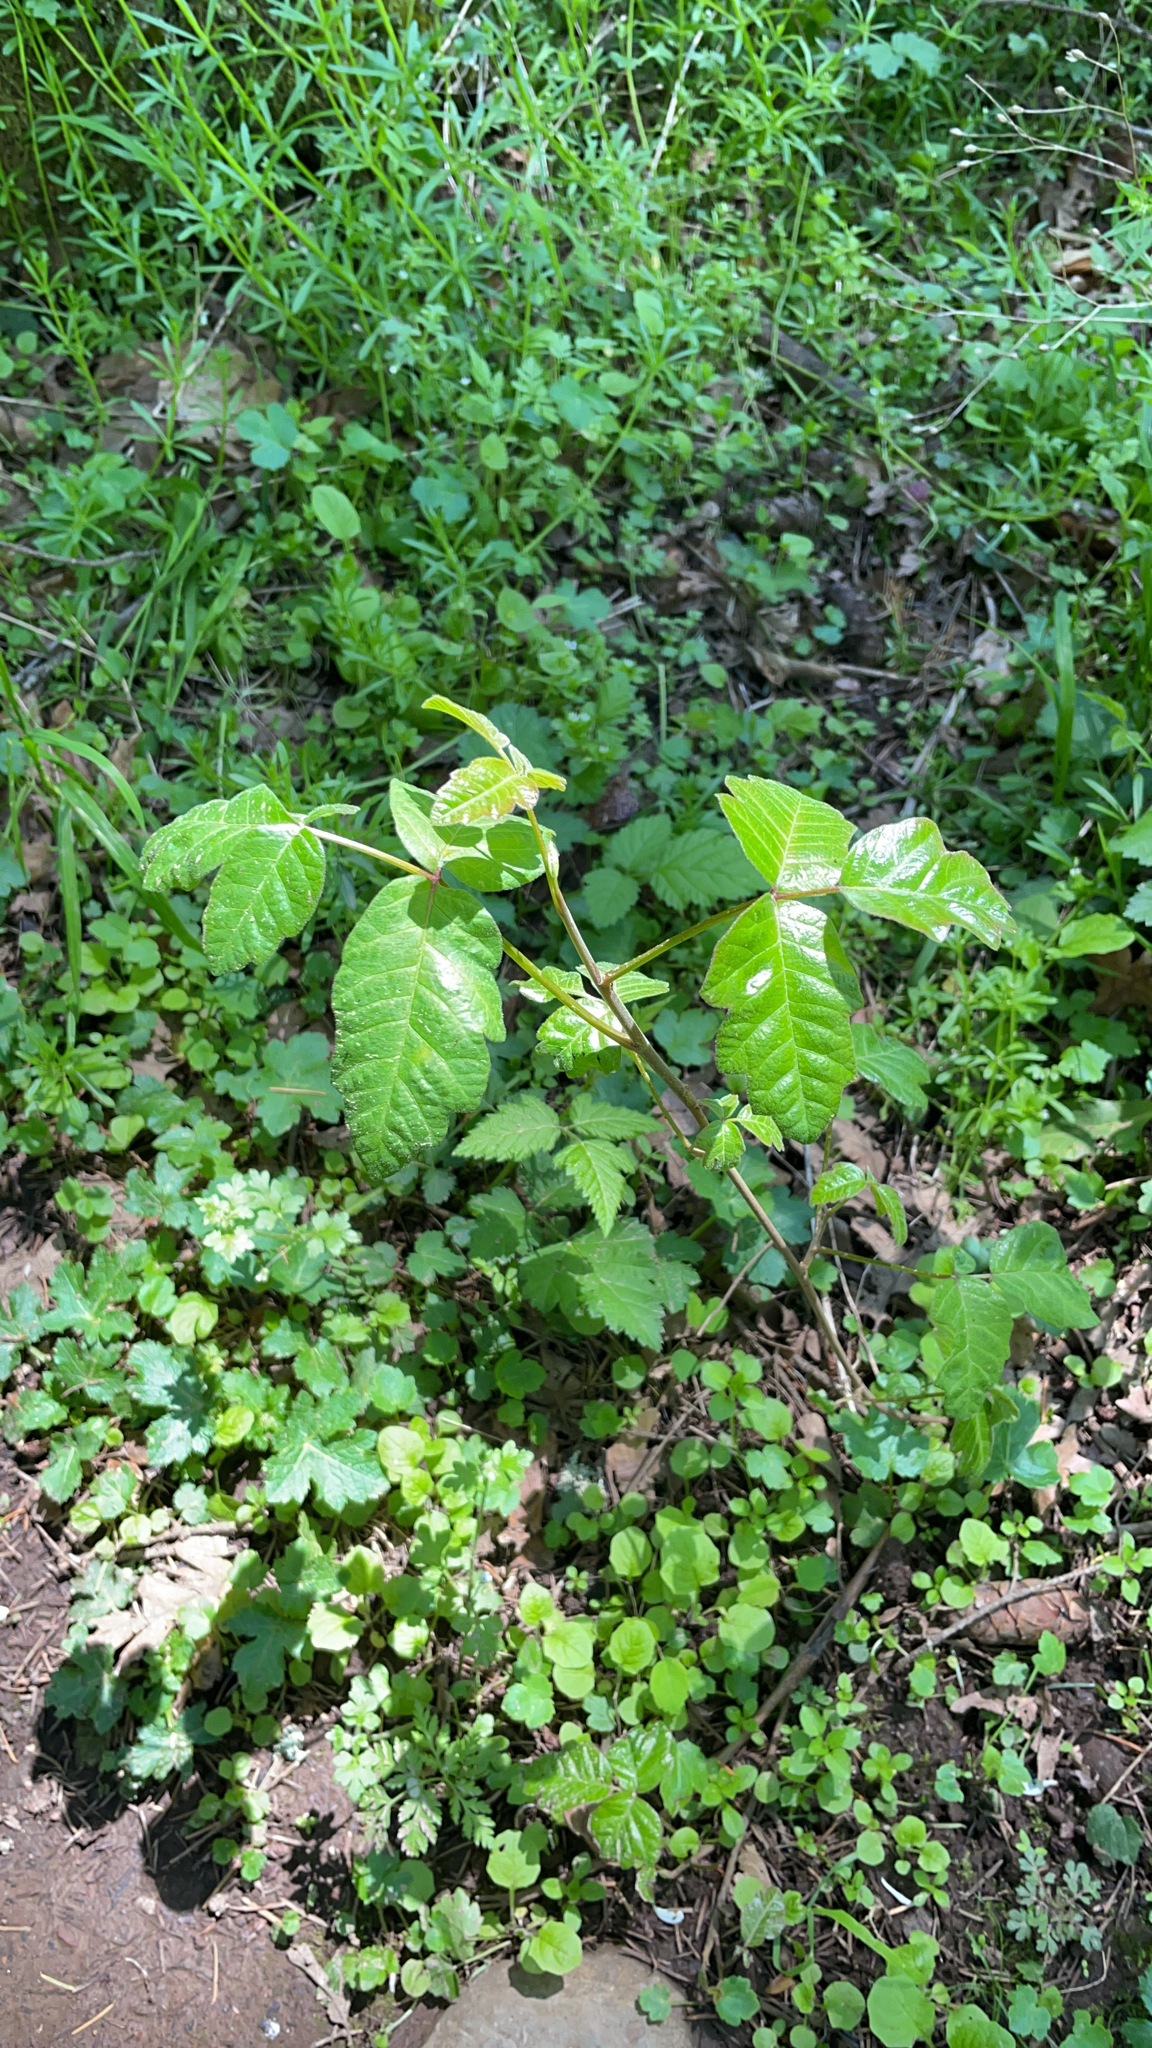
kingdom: Plantae
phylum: Tracheophyta
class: Magnoliopsida
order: Sapindales
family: Anacardiaceae
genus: Toxicodendron
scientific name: Toxicodendron diversilobum
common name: Pacific poison-oak
